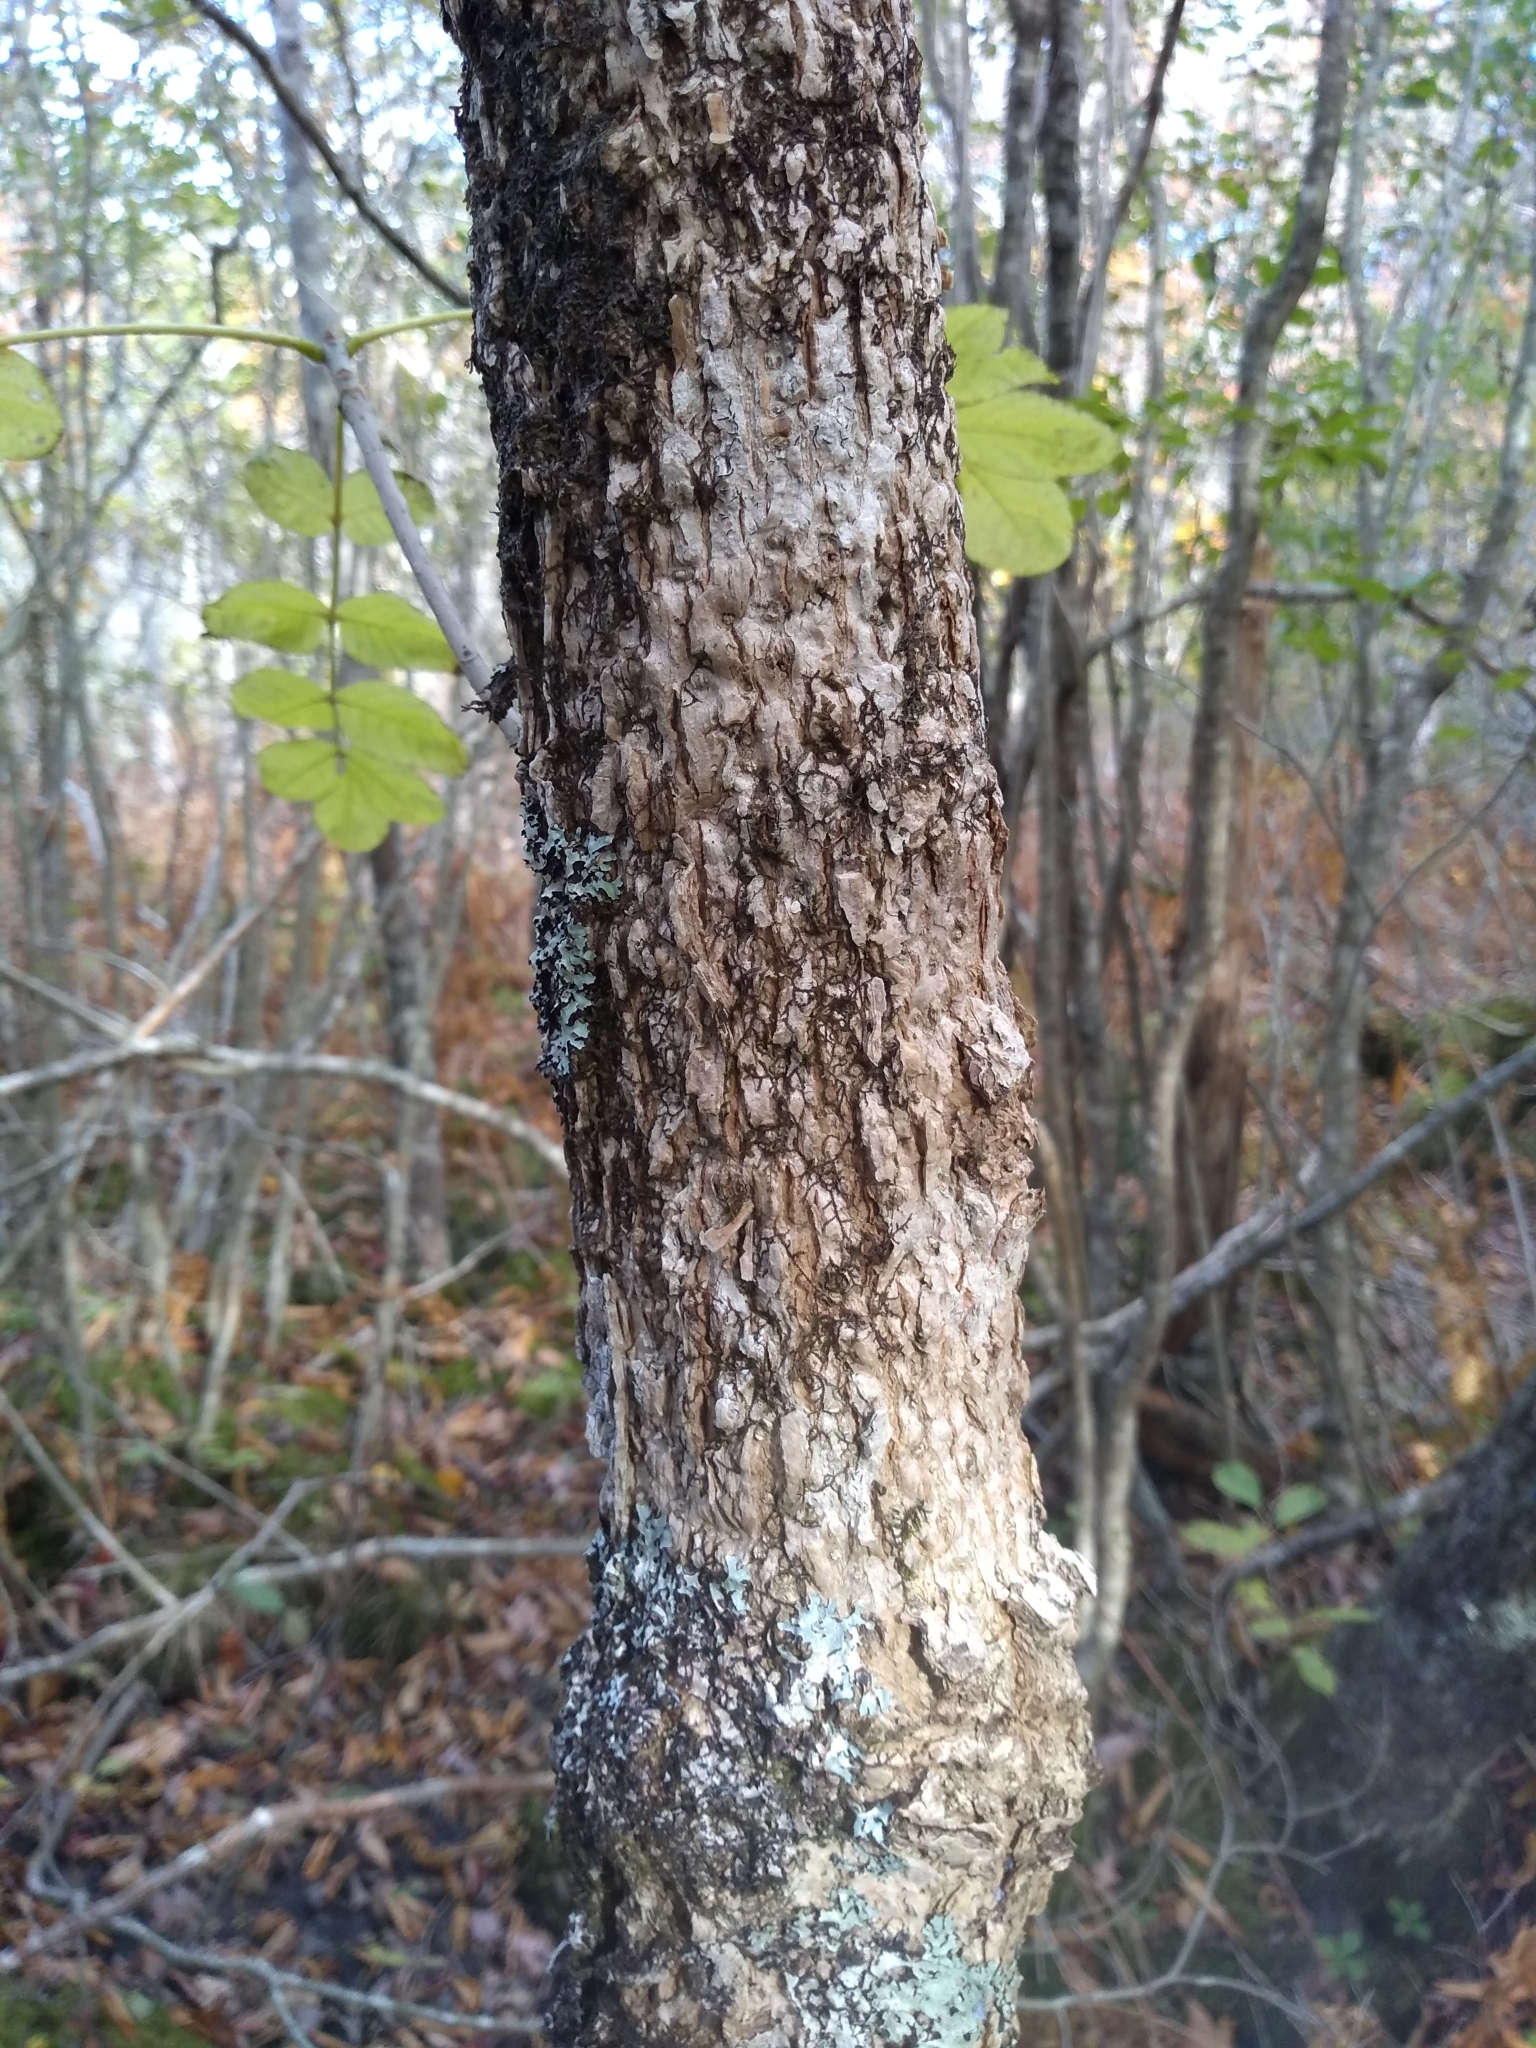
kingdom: Plantae
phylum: Tracheophyta
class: Magnoliopsida
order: Lamiales
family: Oleaceae
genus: Fraxinus
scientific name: Fraxinus nigra
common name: Black ash
